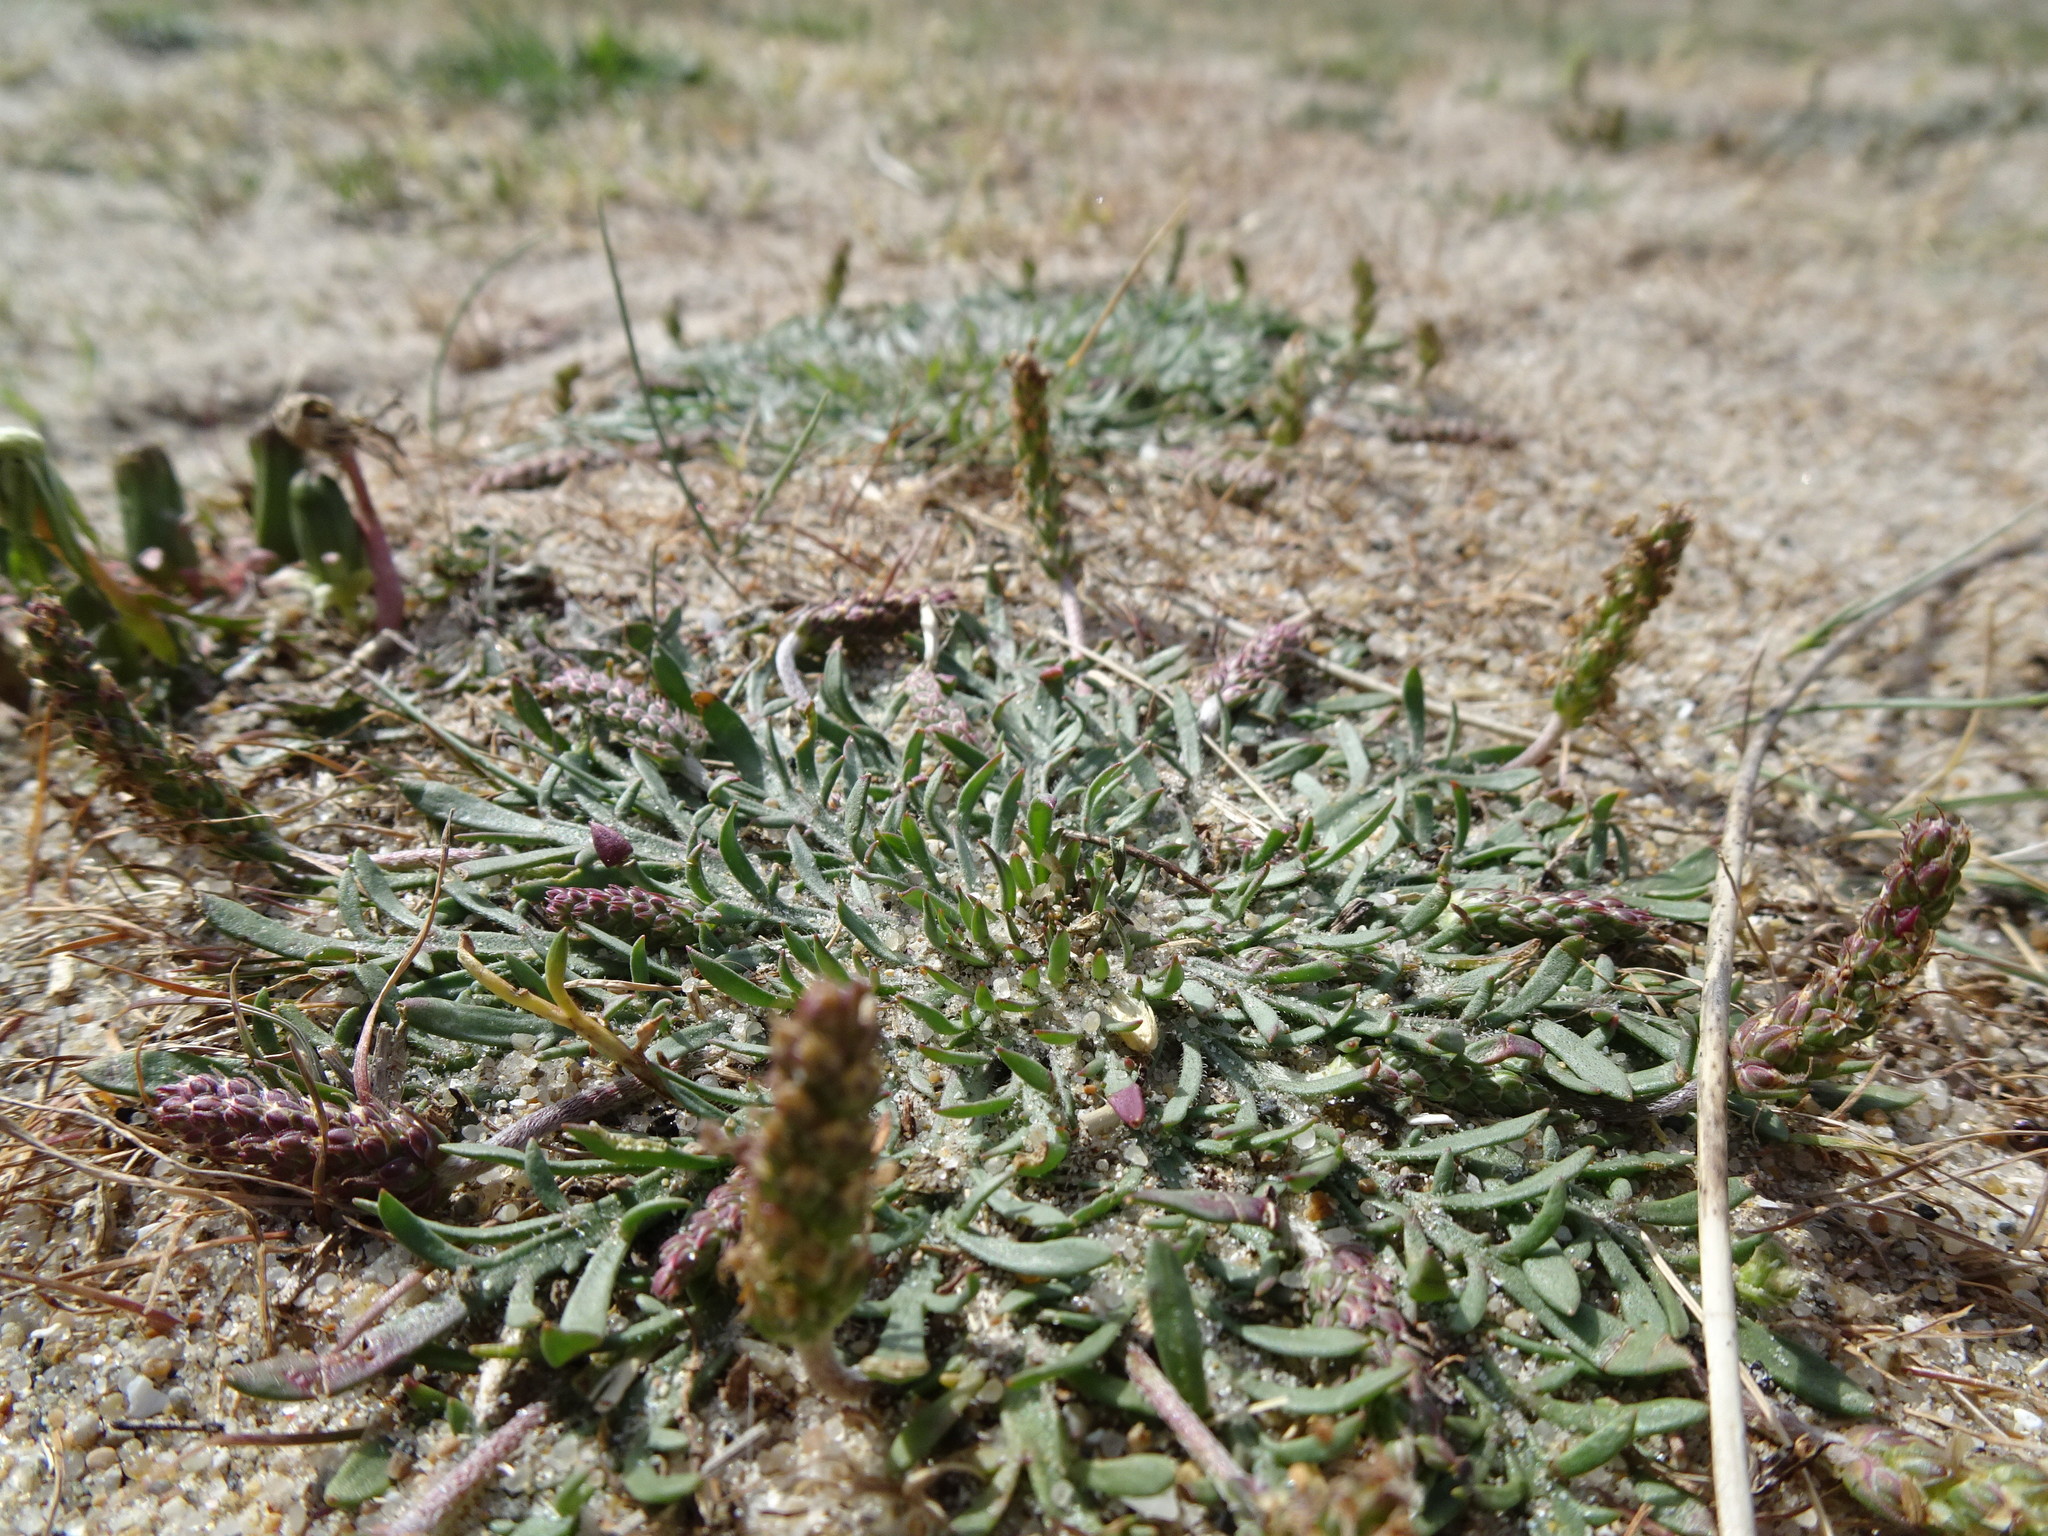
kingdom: Plantae
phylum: Tracheophyta
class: Magnoliopsida
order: Lamiales
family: Plantaginaceae
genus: Plantago
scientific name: Plantago coronopus
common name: Buck's-horn plantain
